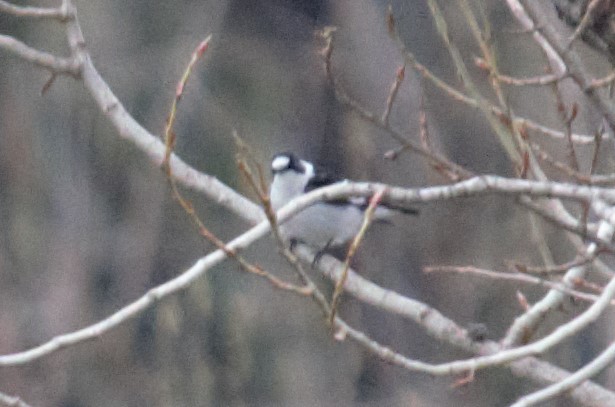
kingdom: Animalia
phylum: Chordata
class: Aves
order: Passeriformes
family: Muscicapidae
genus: Ficedula
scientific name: Ficedula albicollis
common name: Collared flycatcher
